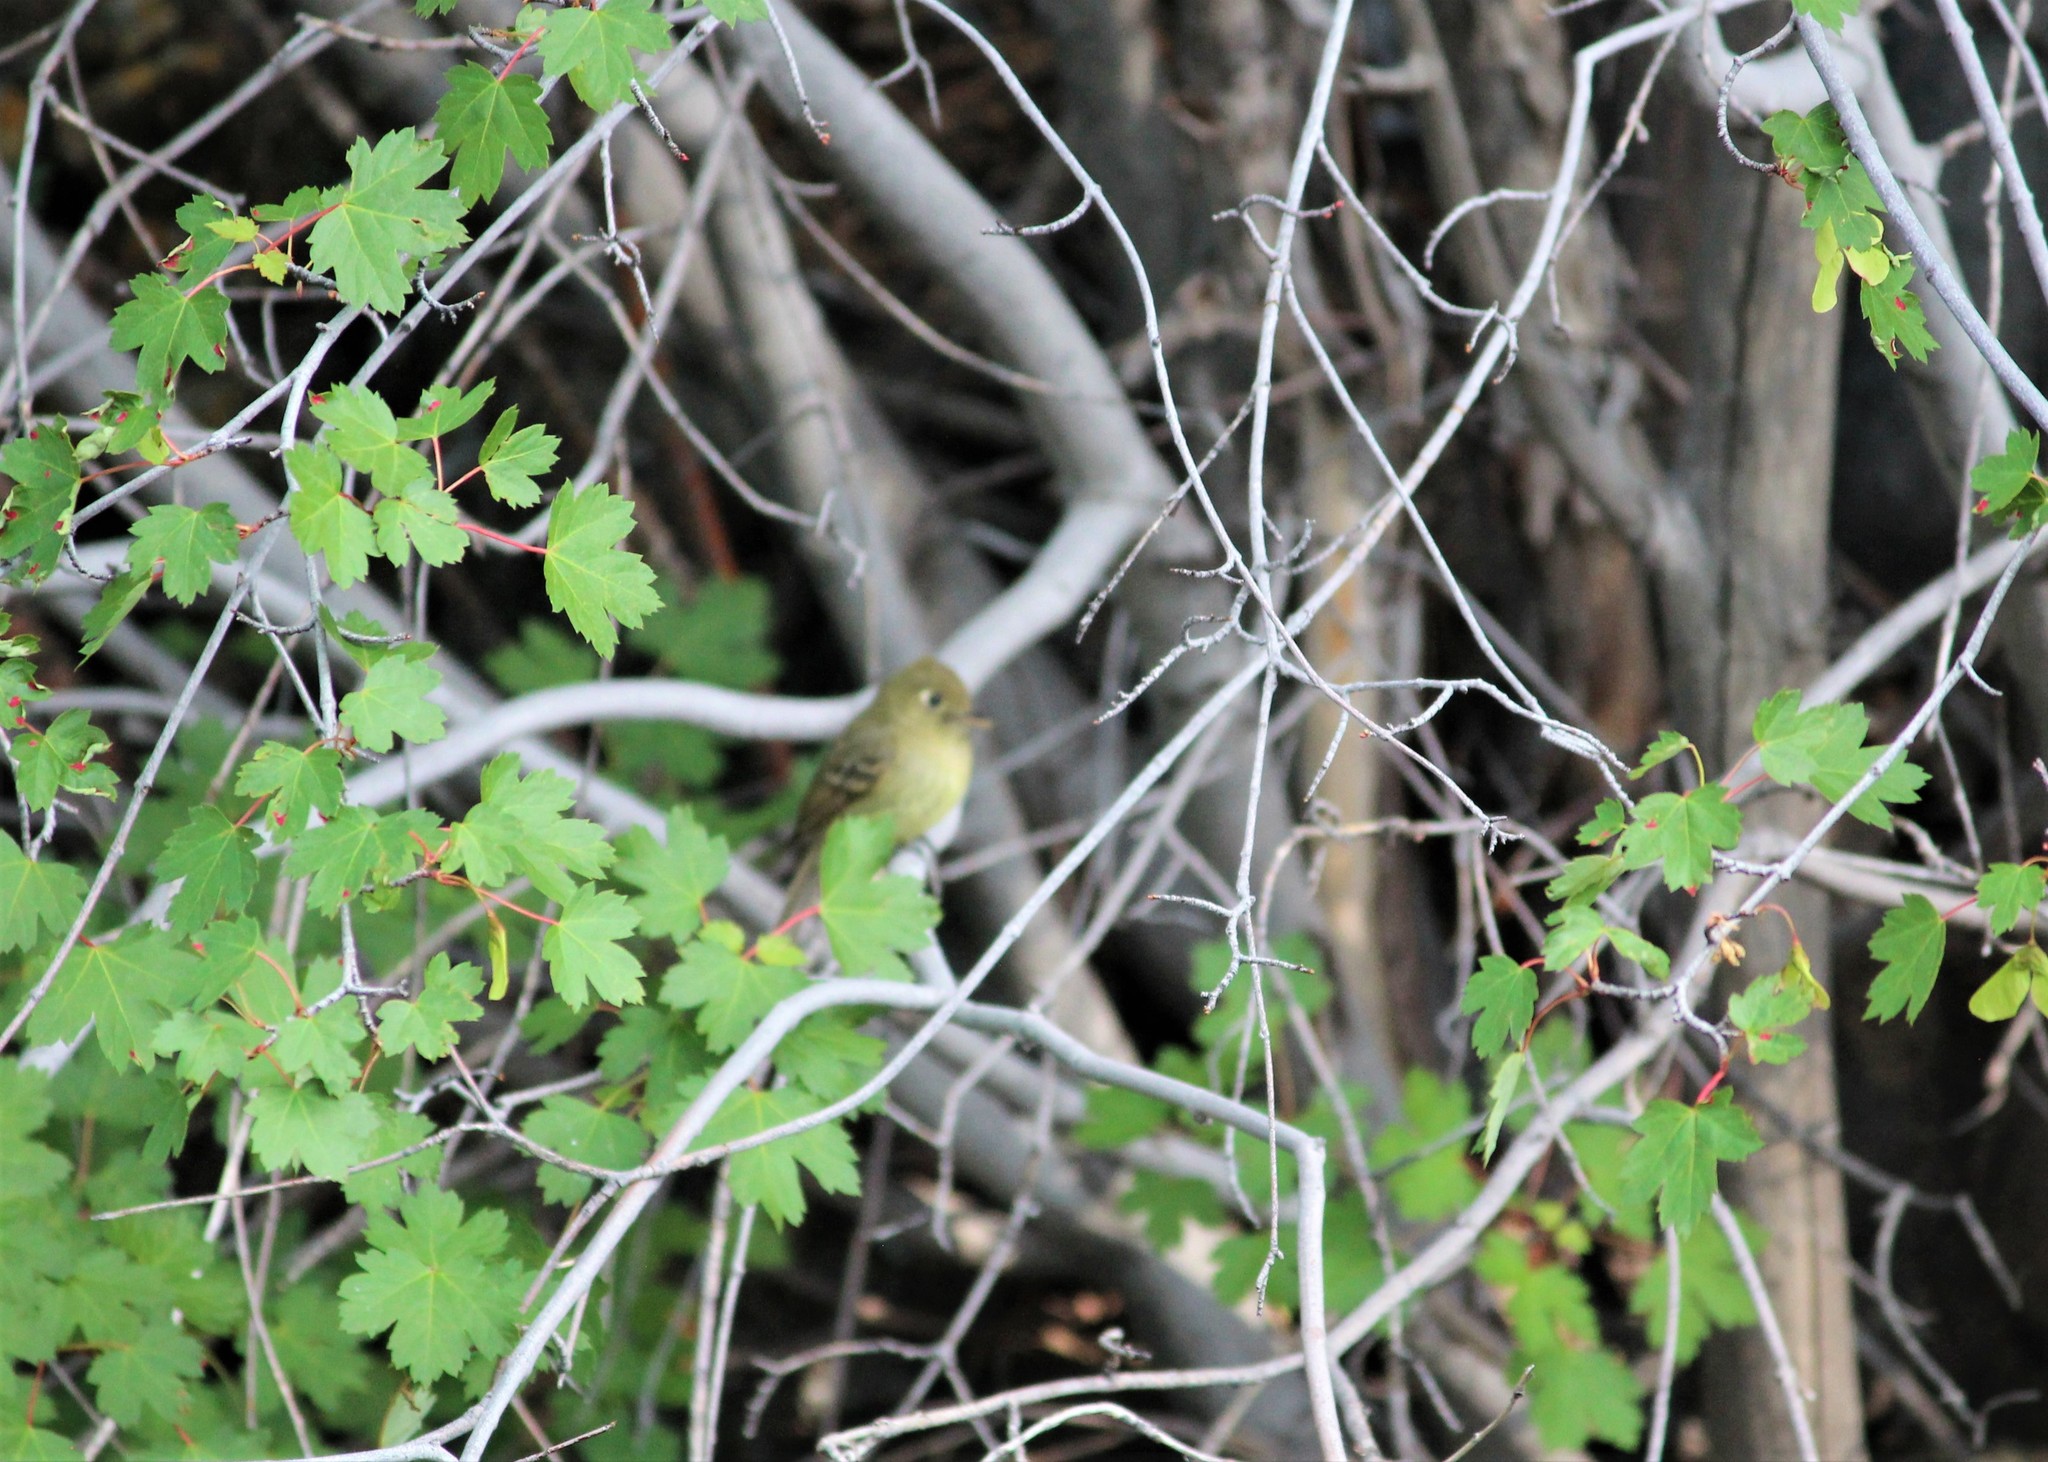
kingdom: Animalia
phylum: Chordata
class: Aves
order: Passeriformes
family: Tyrannidae
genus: Empidonax
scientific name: Empidonax difficilis
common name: Pacific-slope flycatcher
